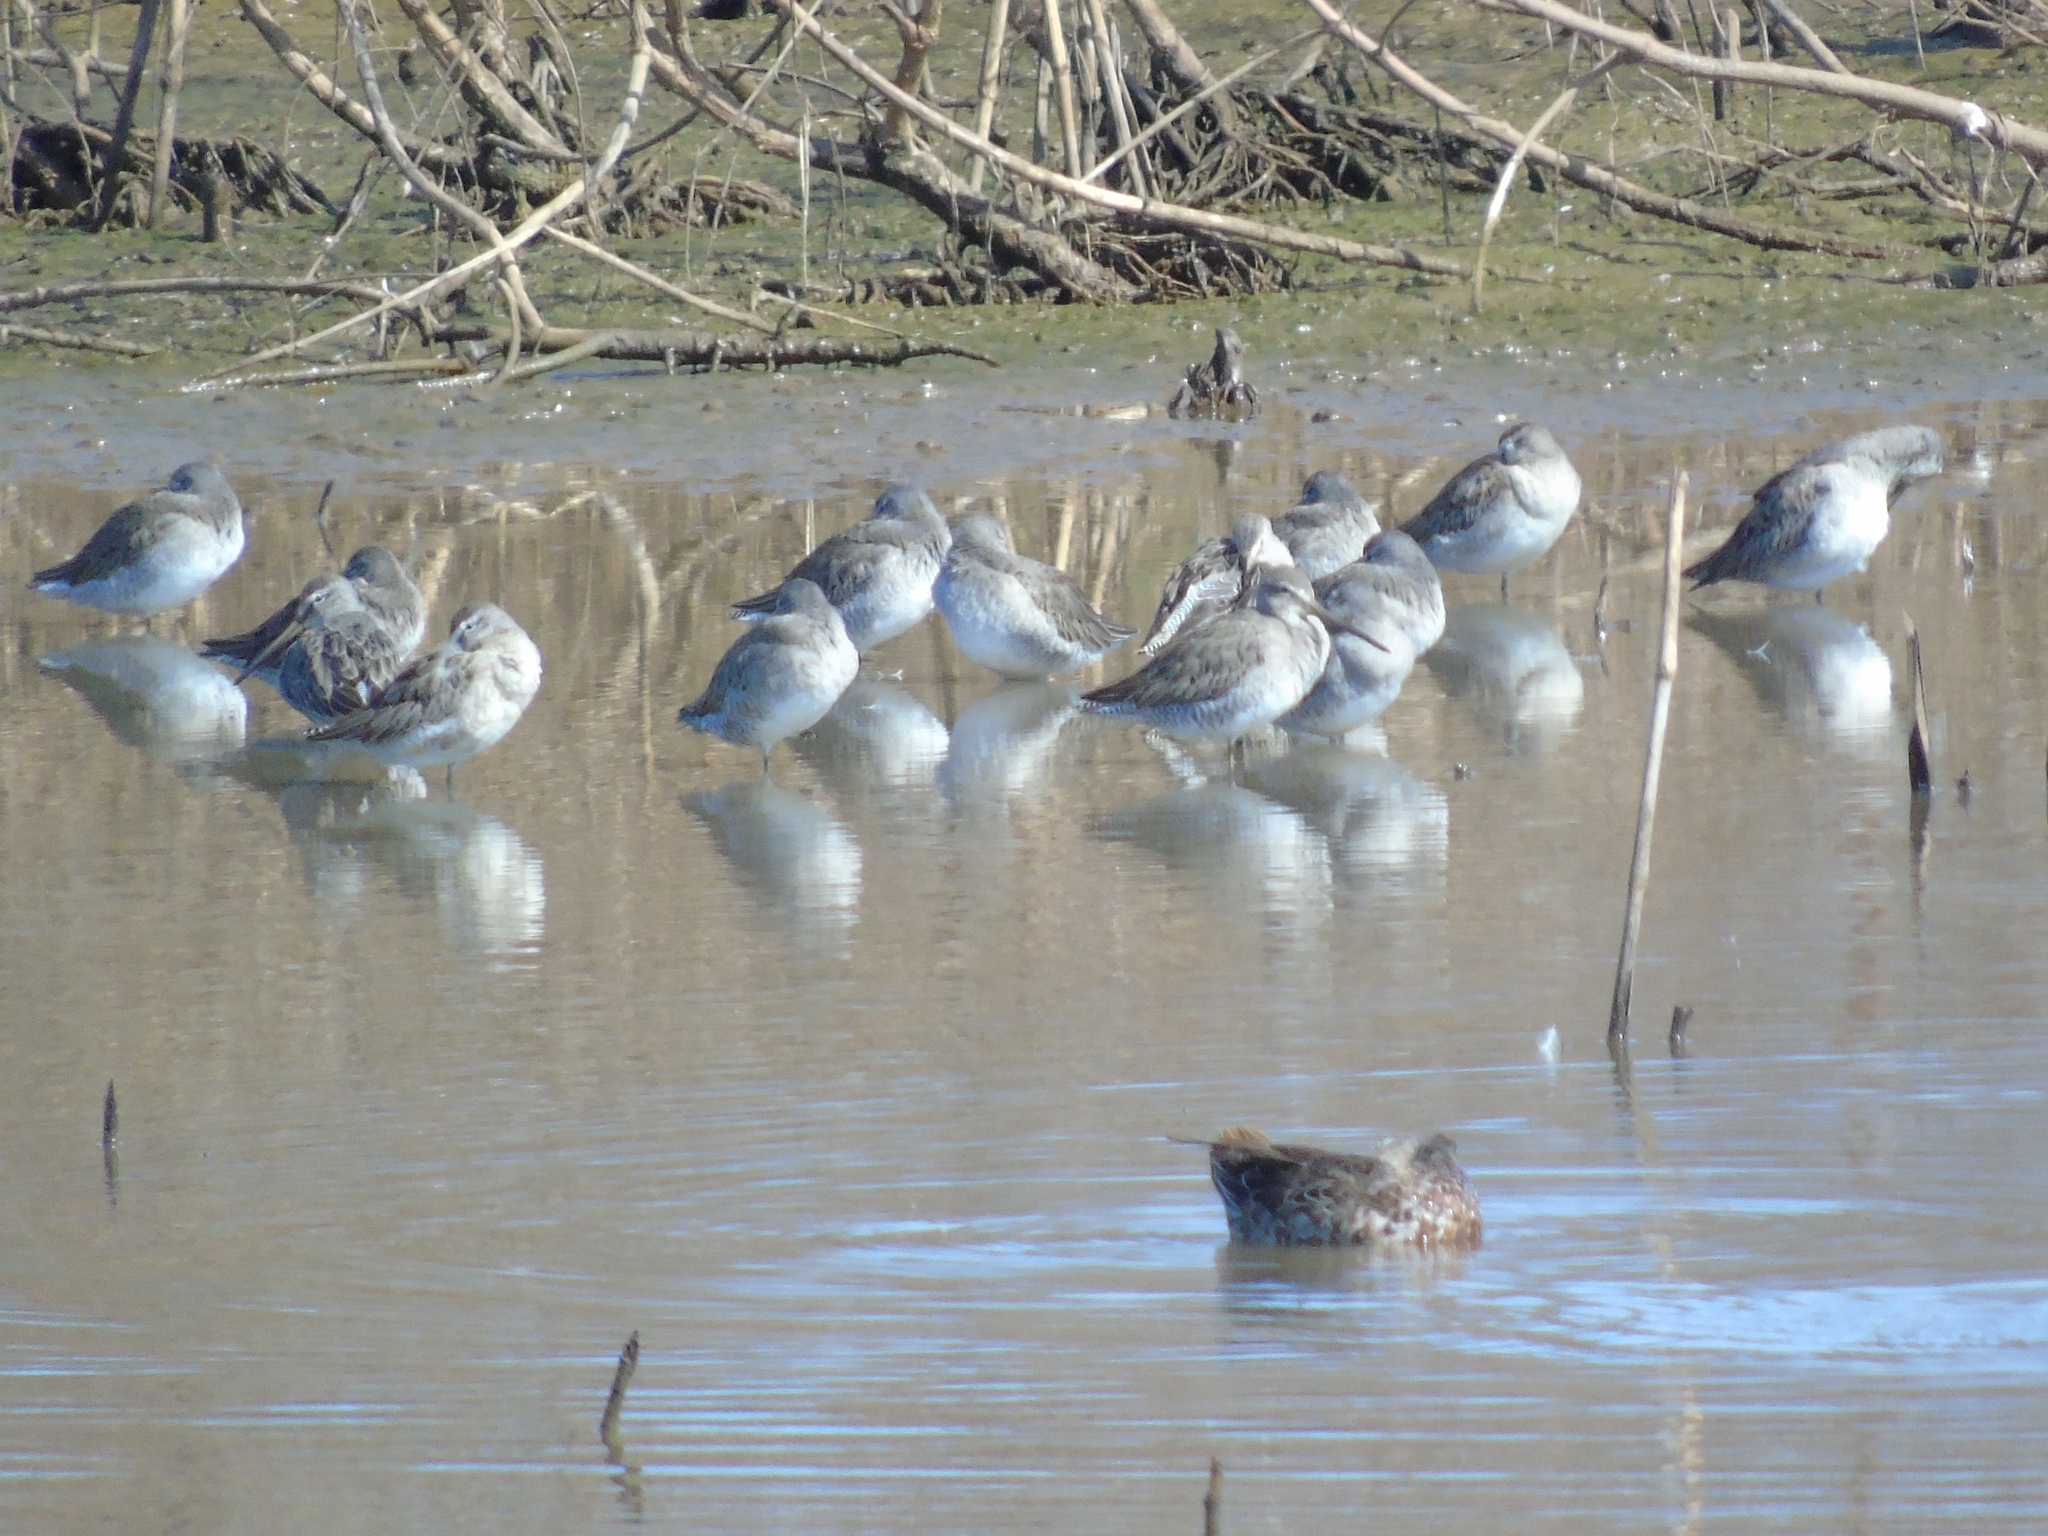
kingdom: Animalia
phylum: Chordata
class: Aves
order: Charadriiformes
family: Scolopacidae
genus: Limnodromus
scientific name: Limnodromus
